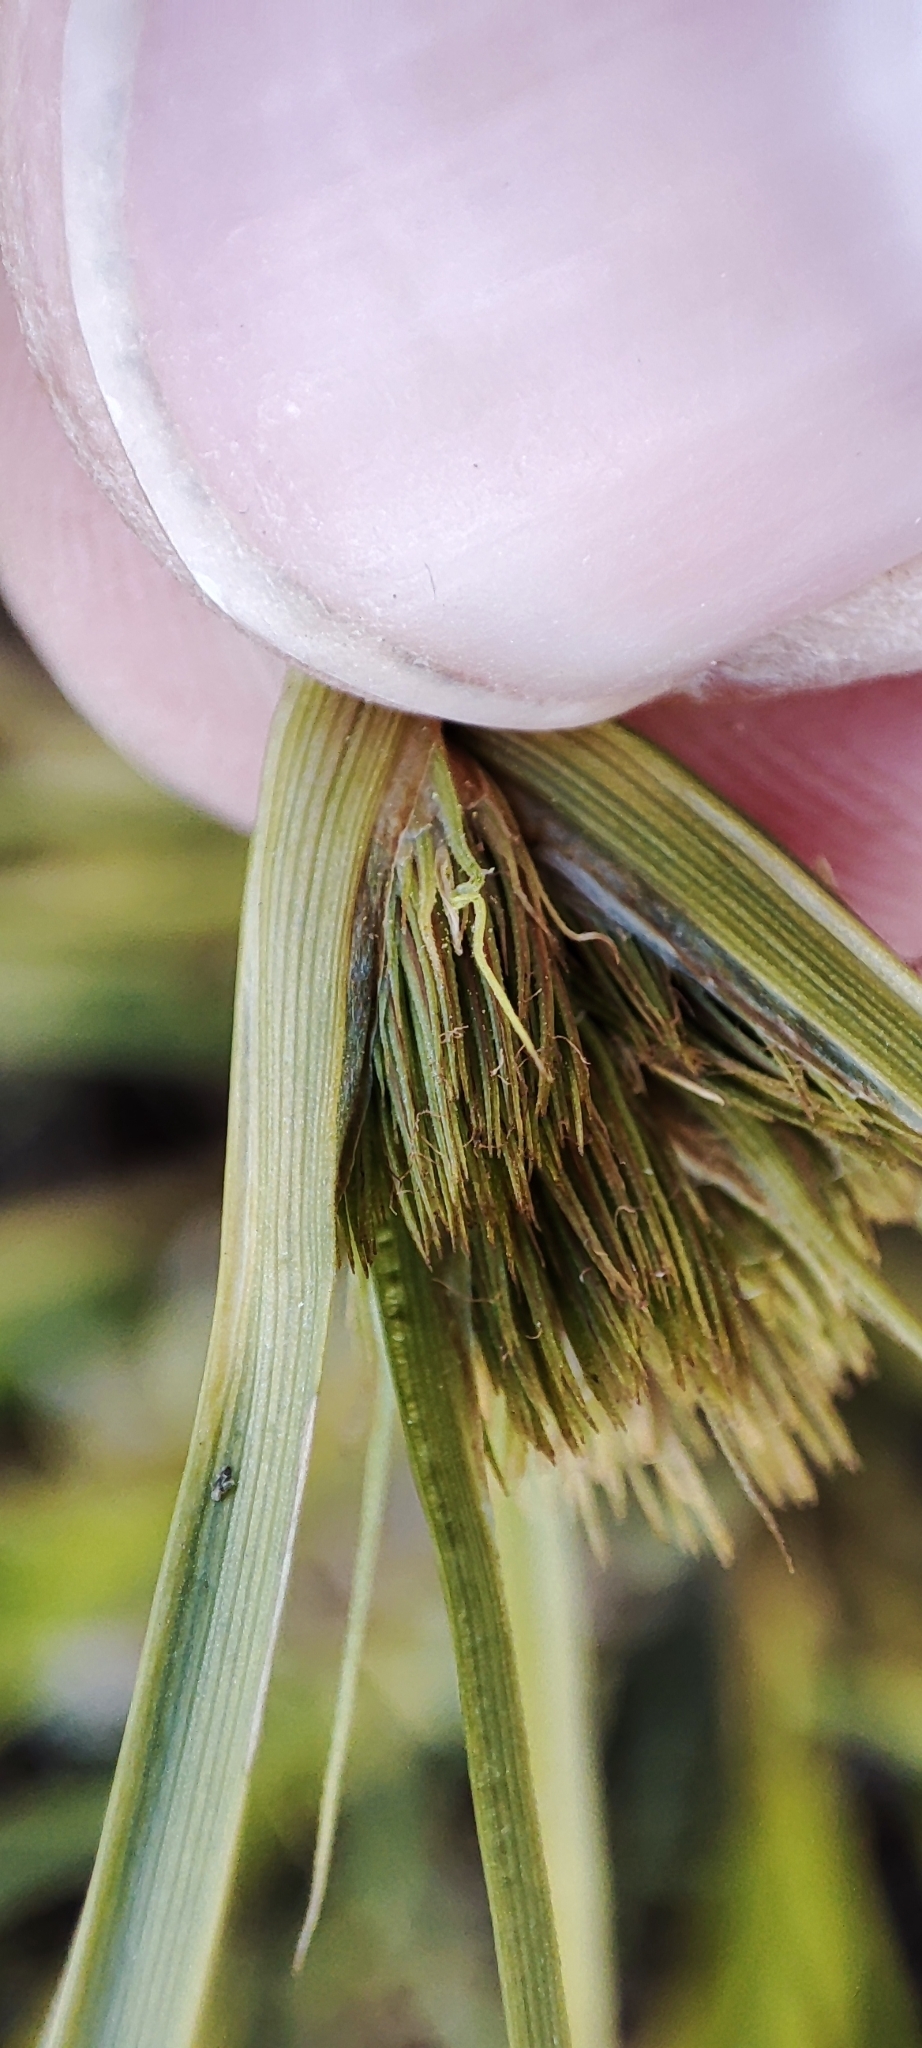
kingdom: Plantae
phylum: Tracheophyta
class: Liliopsida
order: Poales
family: Cyperaceae
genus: Carex
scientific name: Carex bohemica
